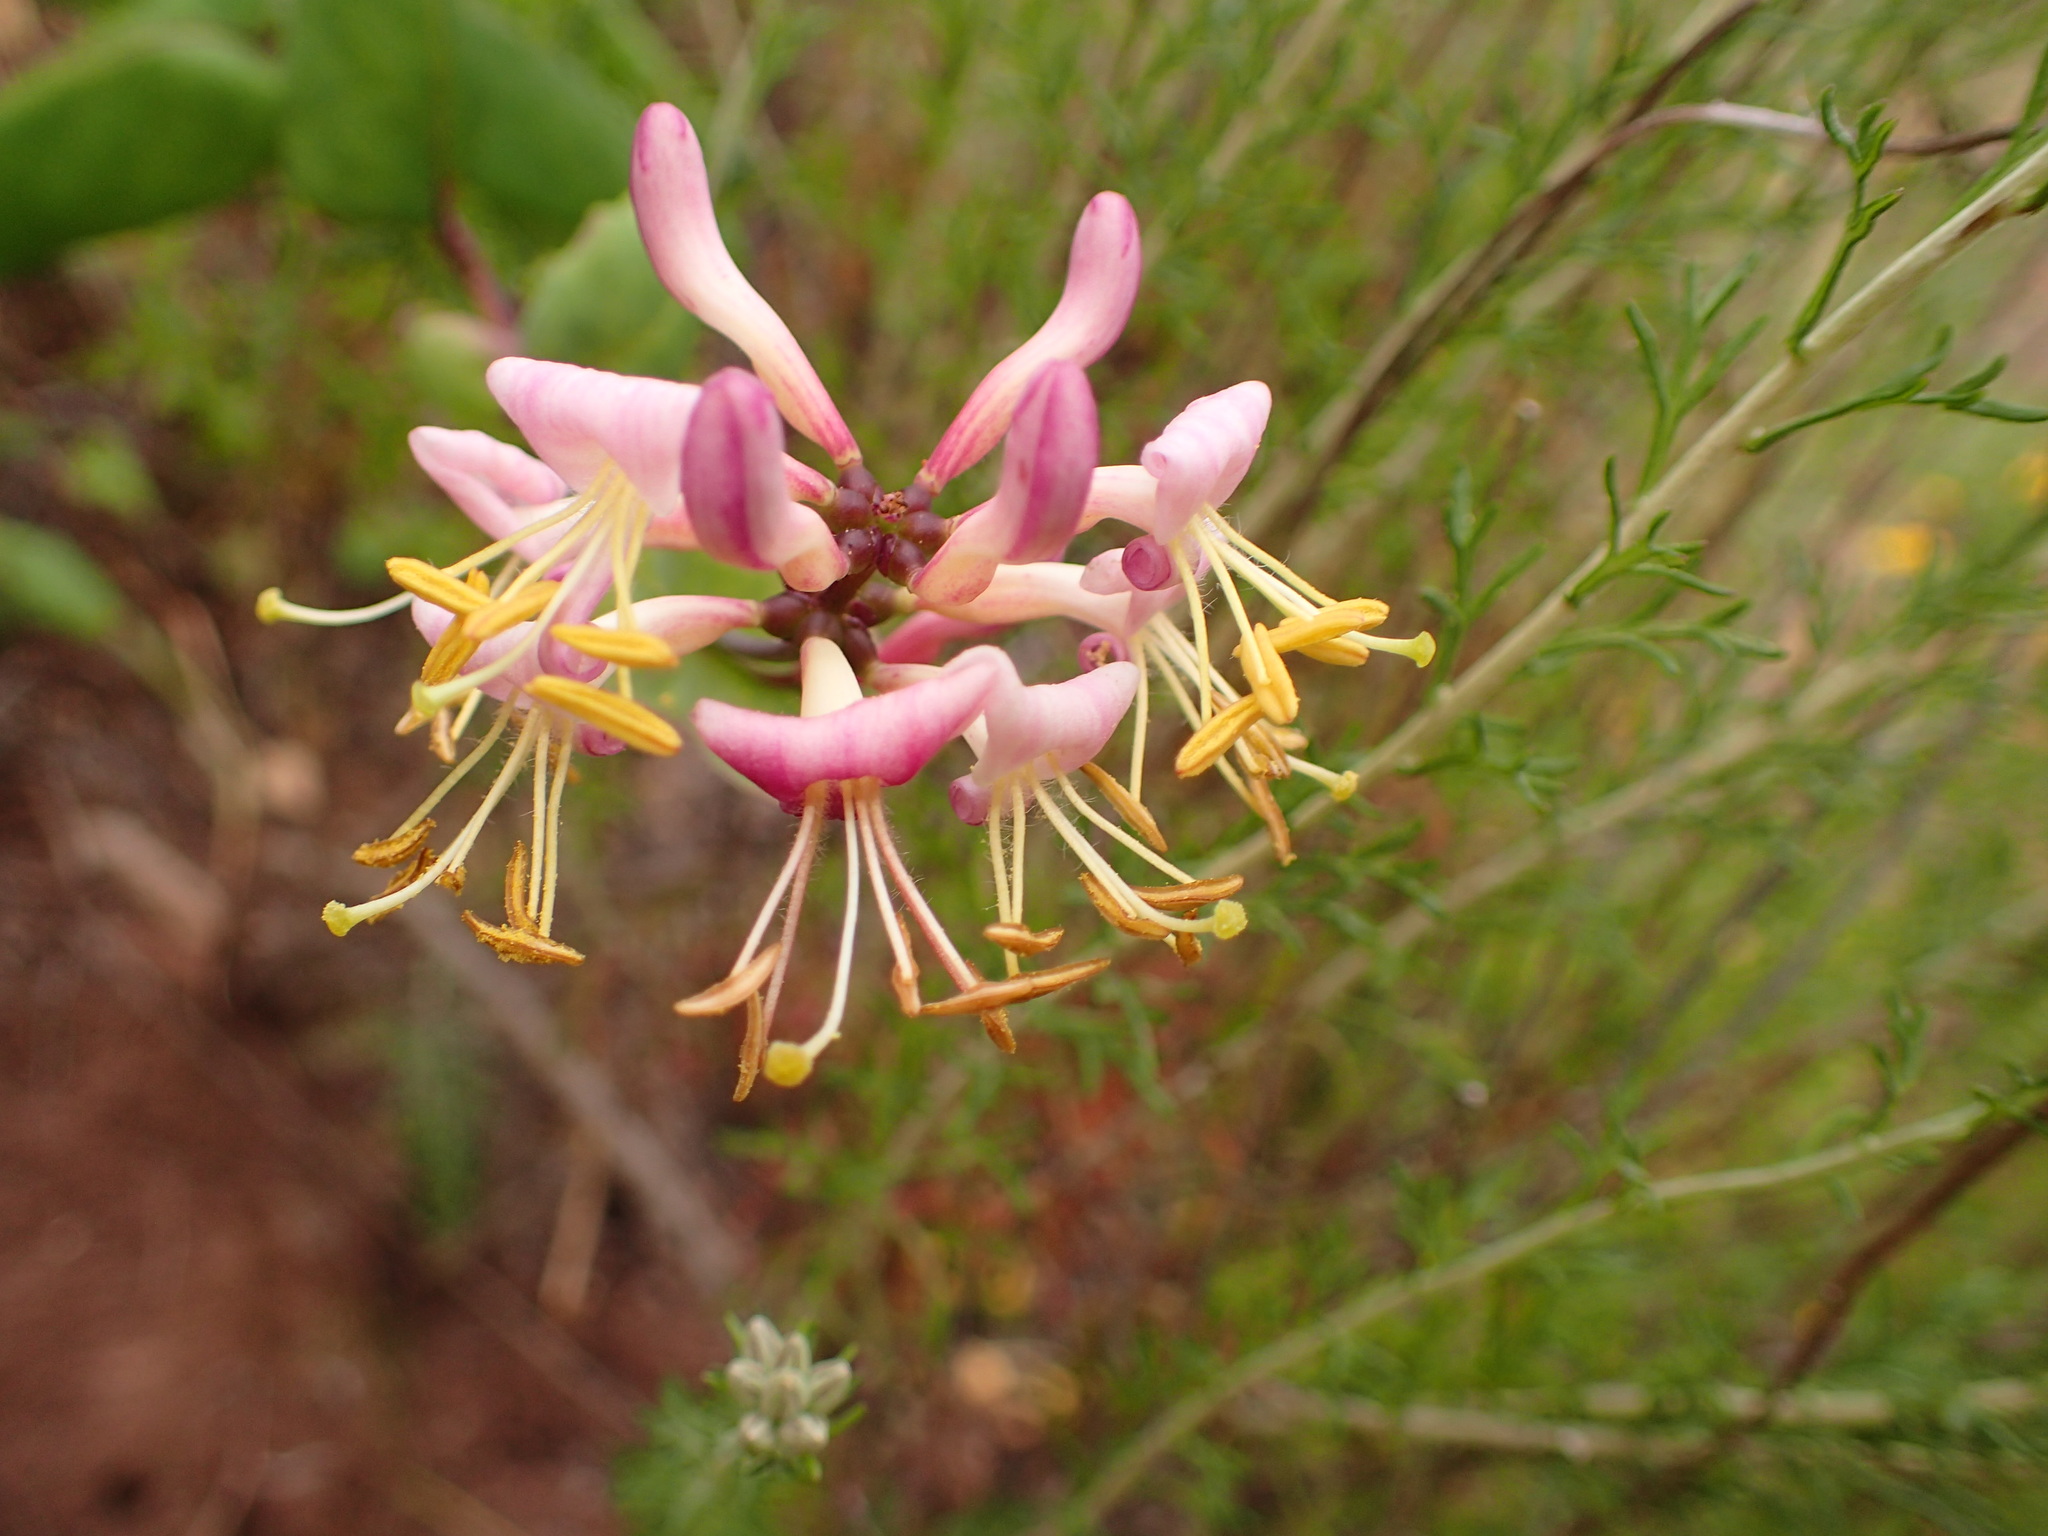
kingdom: Plantae
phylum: Tracheophyta
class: Magnoliopsida
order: Dipsacales
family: Caprifoliaceae
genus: Lonicera
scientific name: Lonicera hispidula
